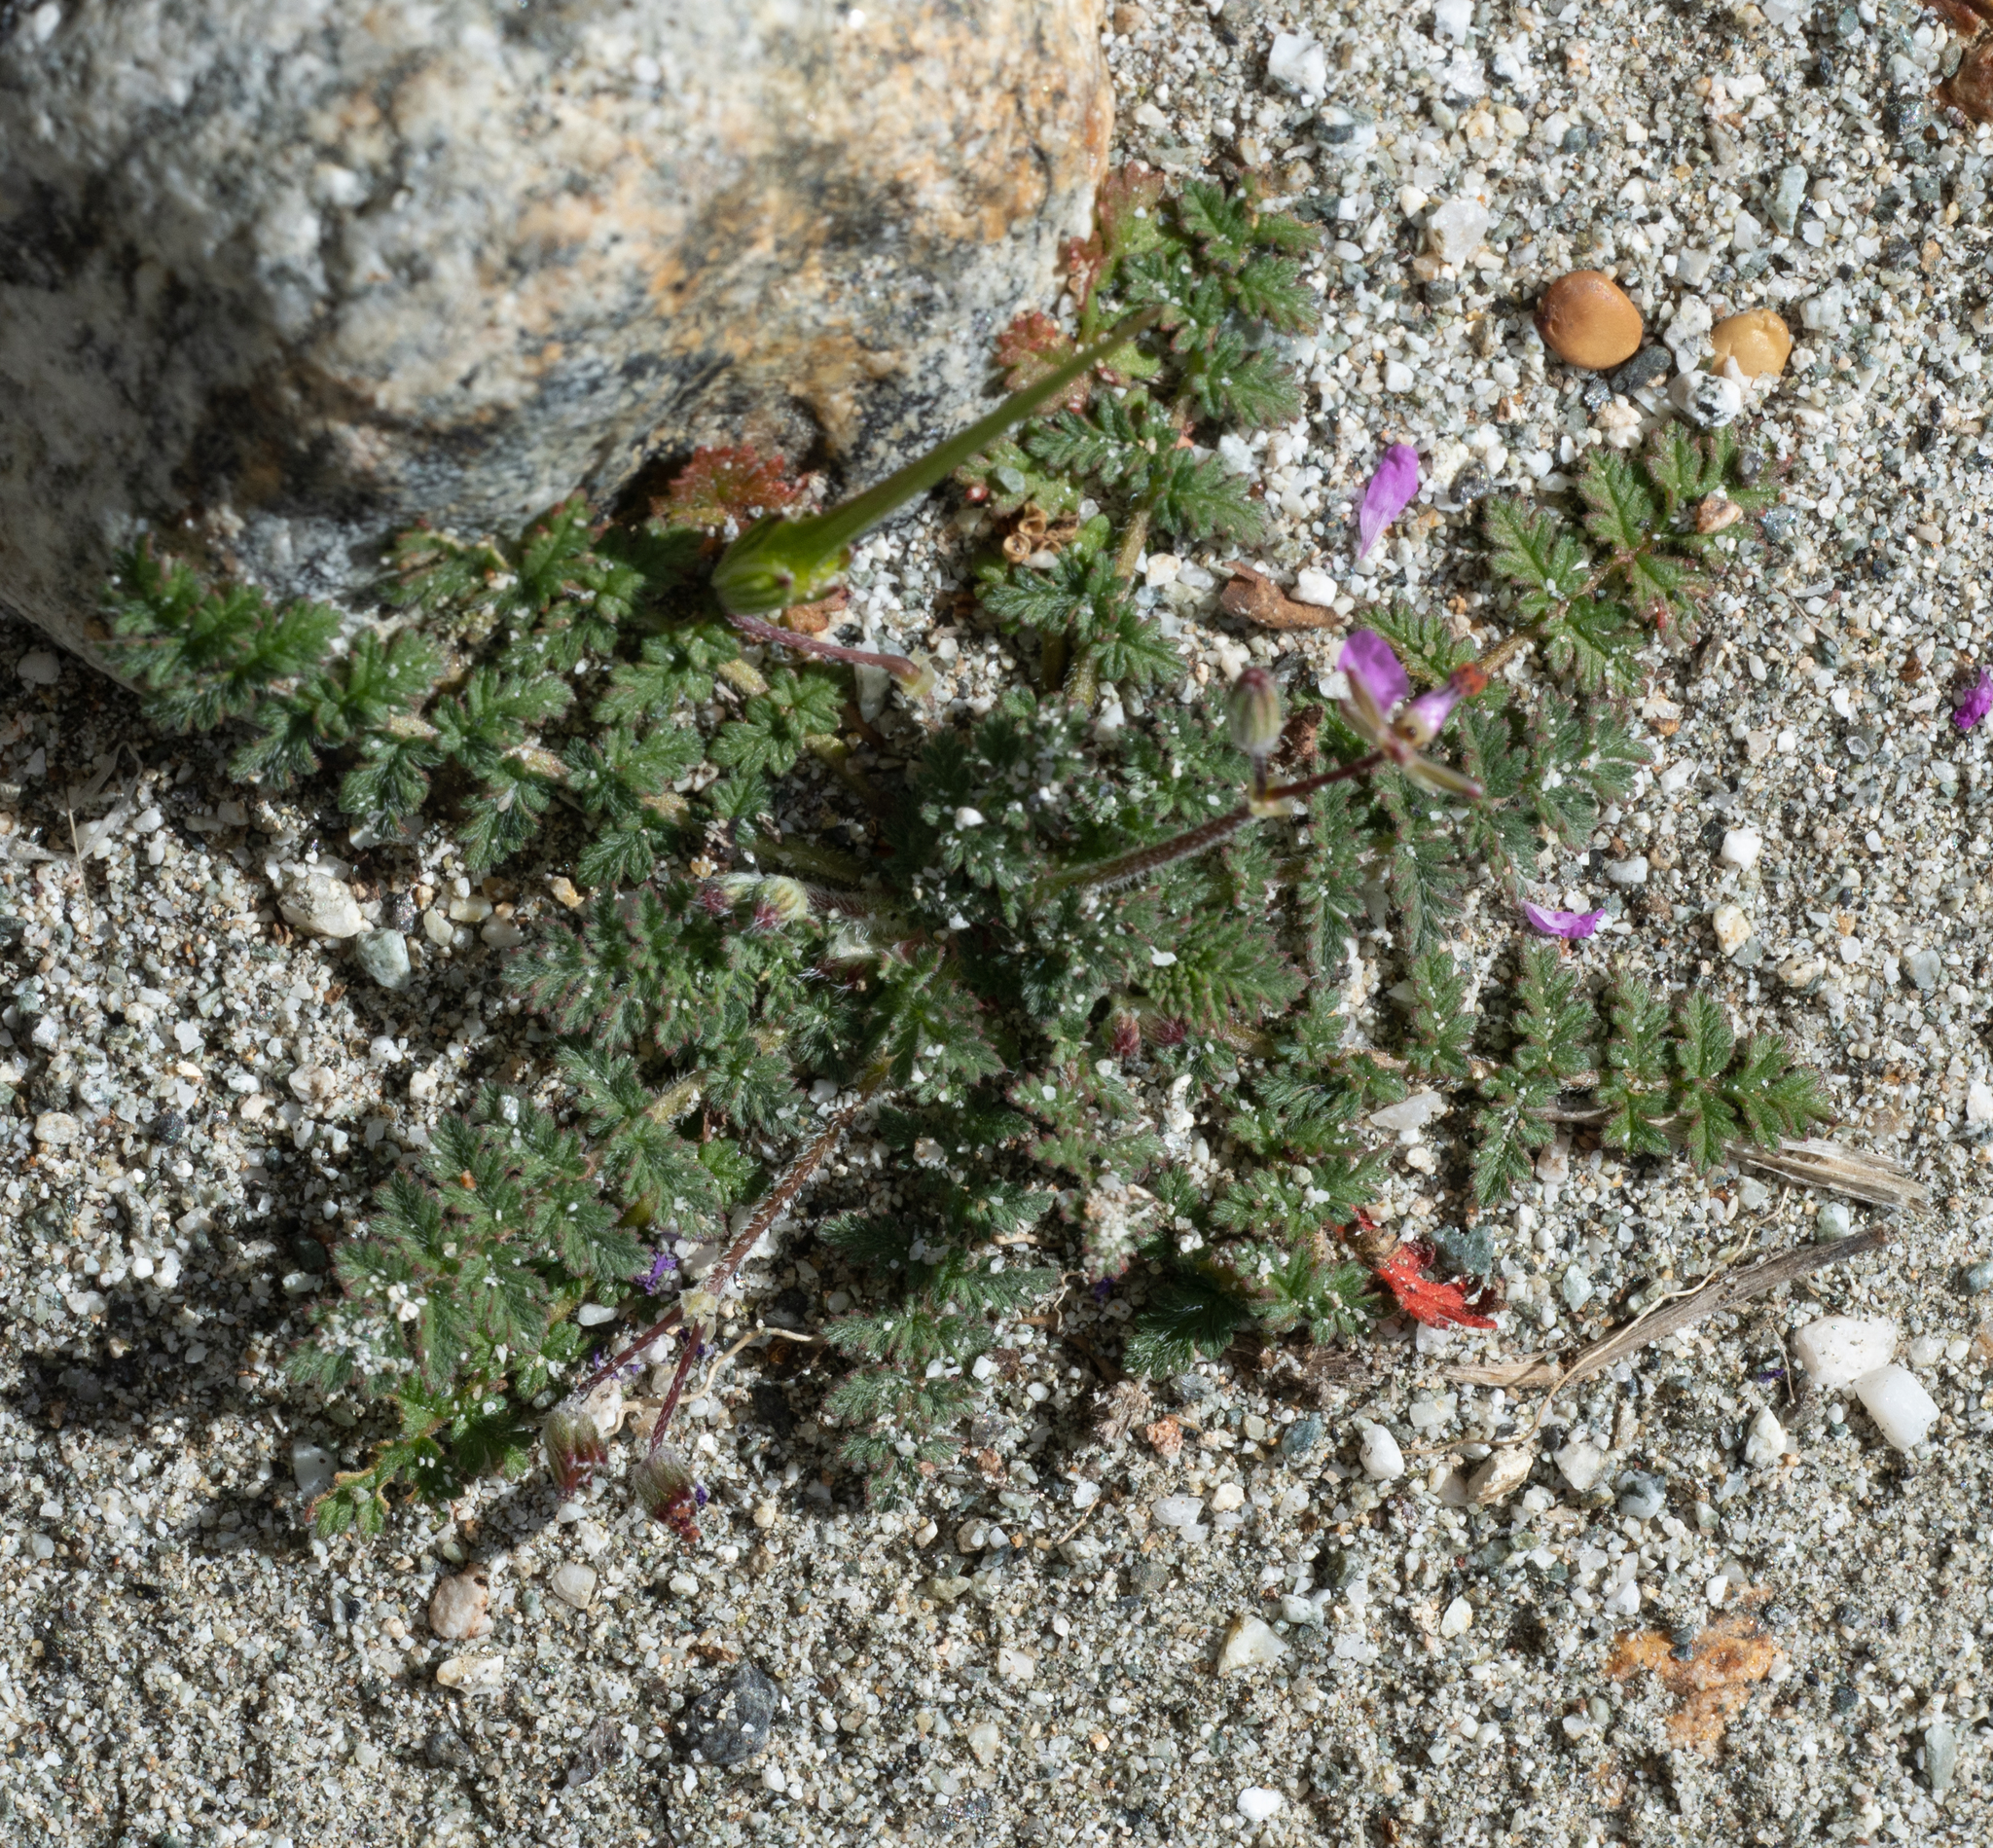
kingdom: Plantae
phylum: Tracheophyta
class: Magnoliopsida
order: Geraniales
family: Geraniaceae
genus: Erodium
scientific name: Erodium cicutarium
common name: Common stork's-bill
